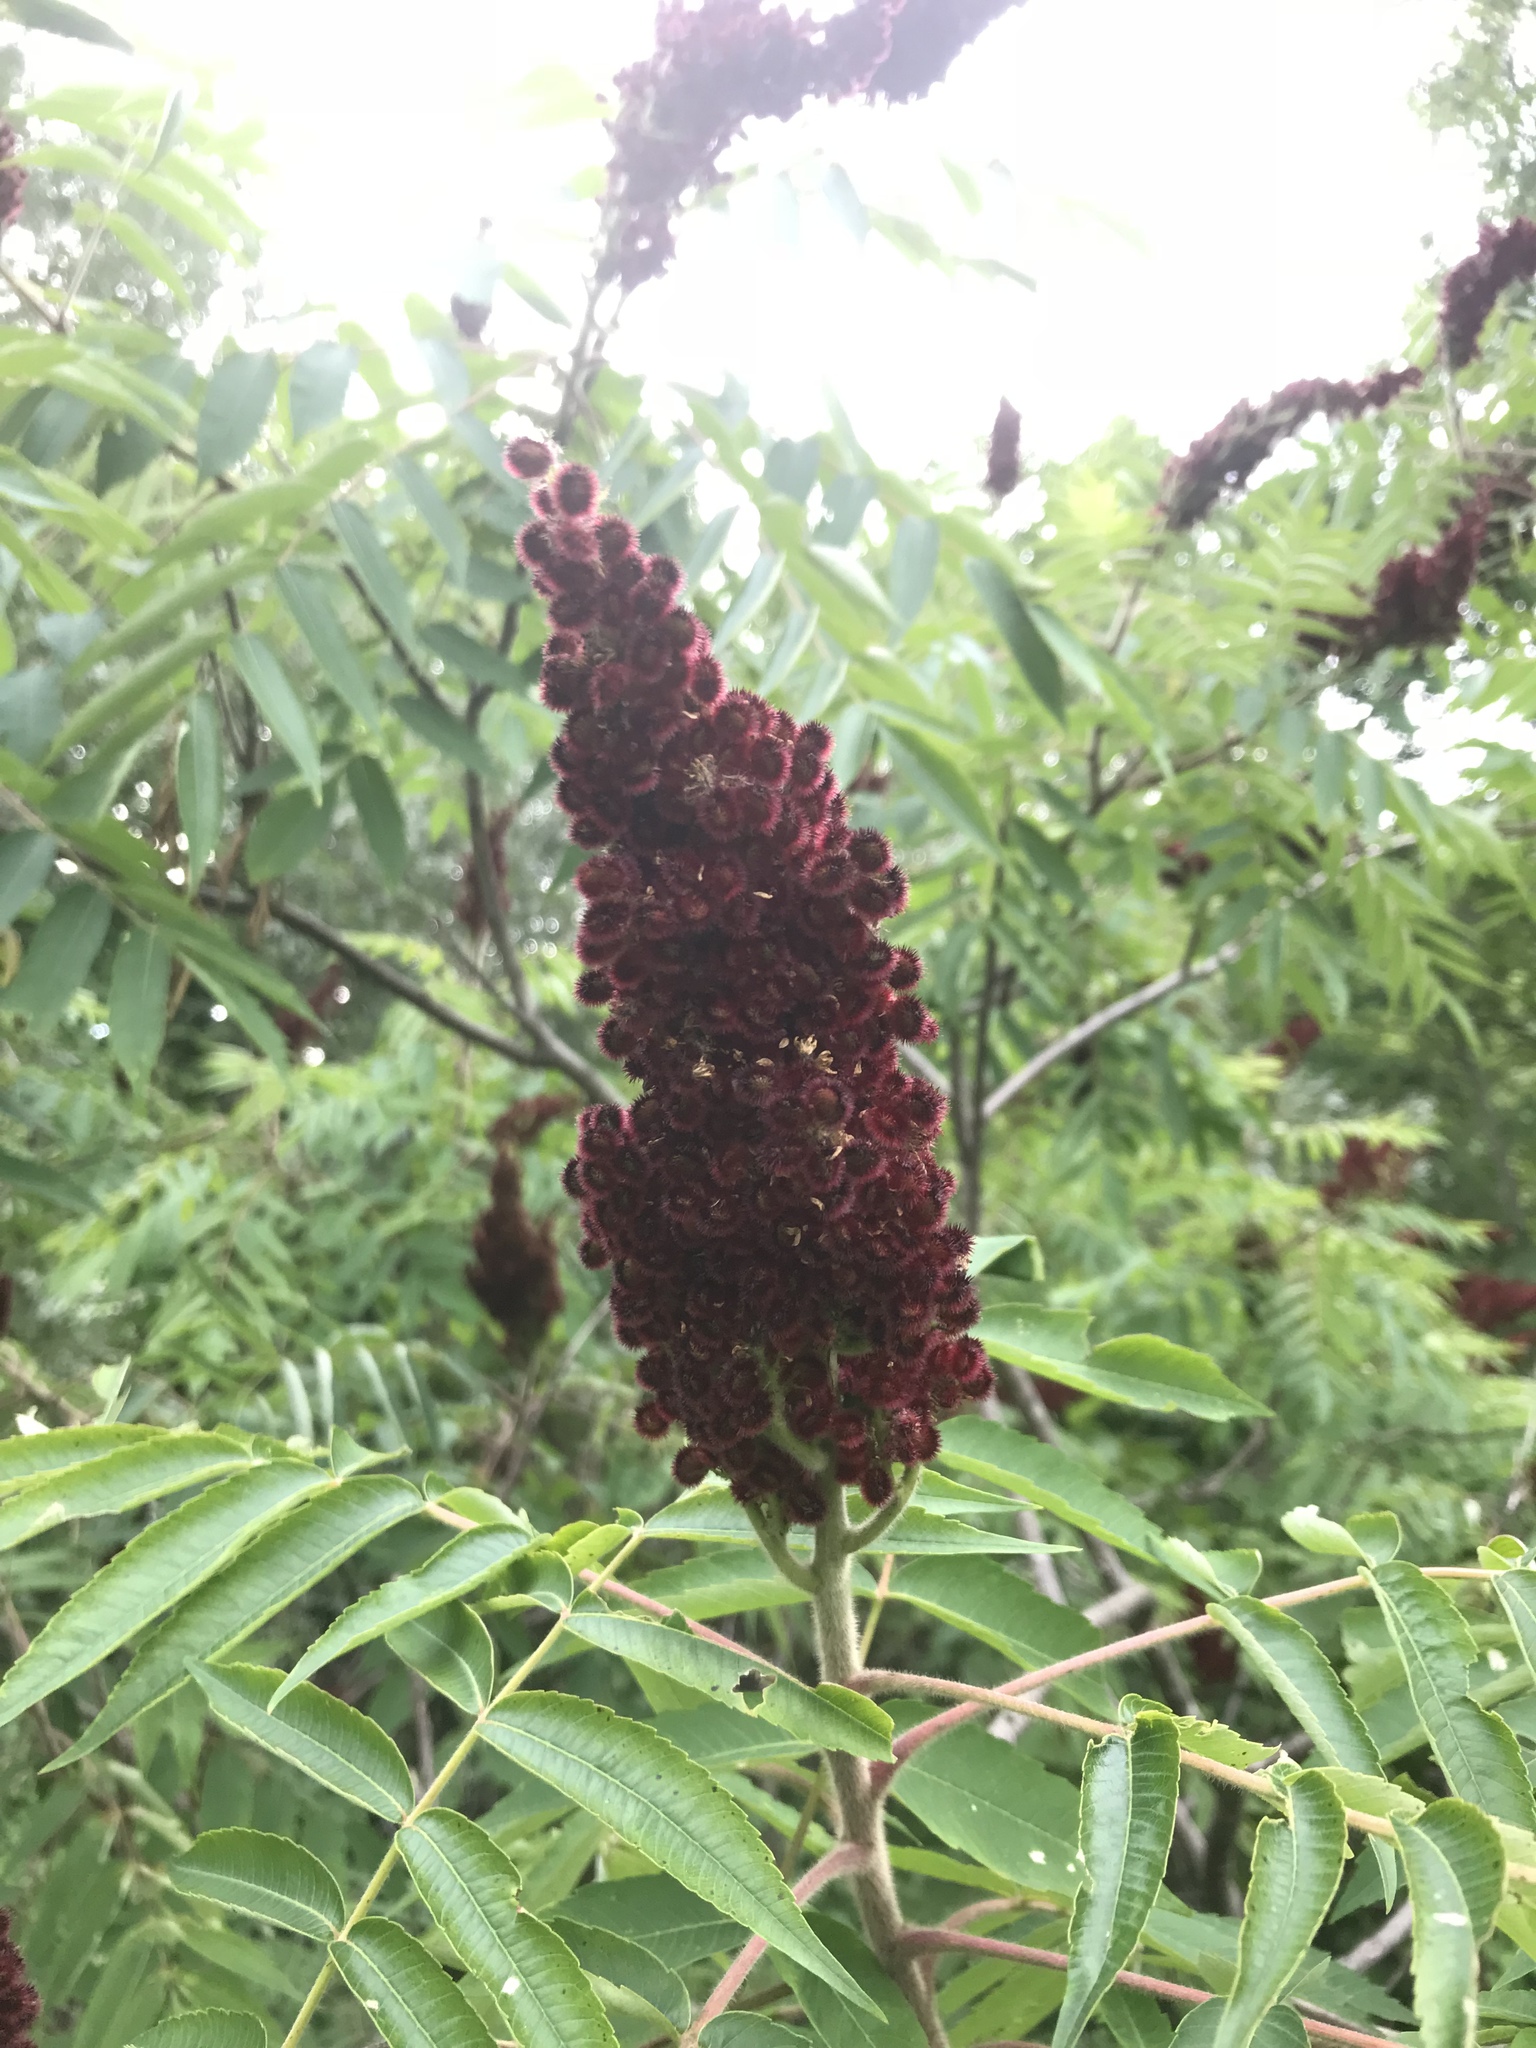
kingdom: Plantae
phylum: Tracheophyta
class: Magnoliopsida
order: Sapindales
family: Anacardiaceae
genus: Rhus
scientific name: Rhus typhina
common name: Staghorn sumac
